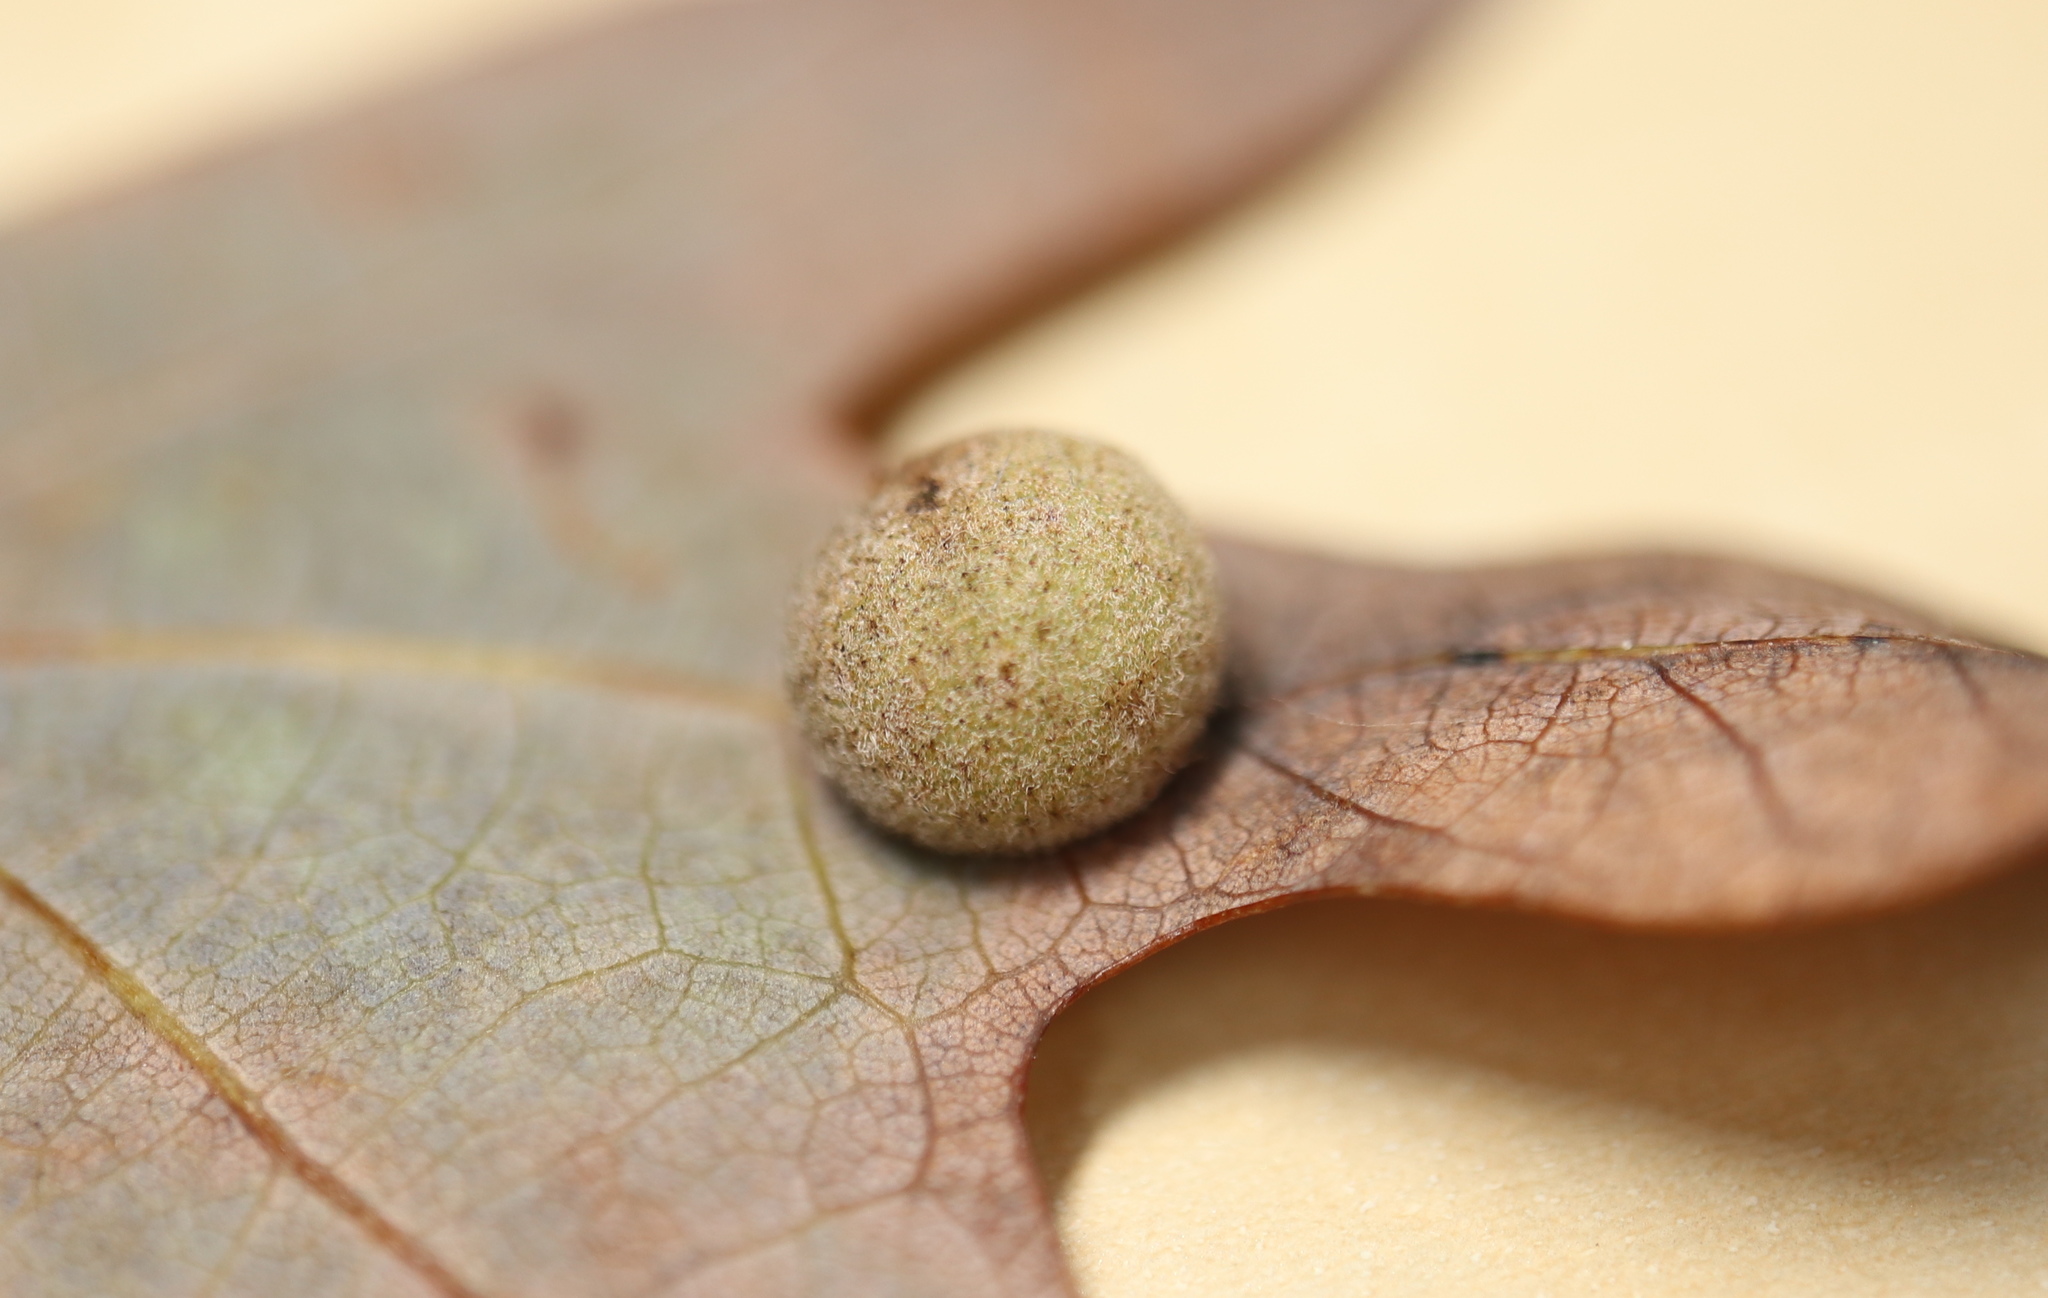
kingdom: Animalia
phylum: Arthropoda
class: Insecta
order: Hymenoptera
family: Cynipidae
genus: Philonix
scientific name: Philonix fulvicollis
